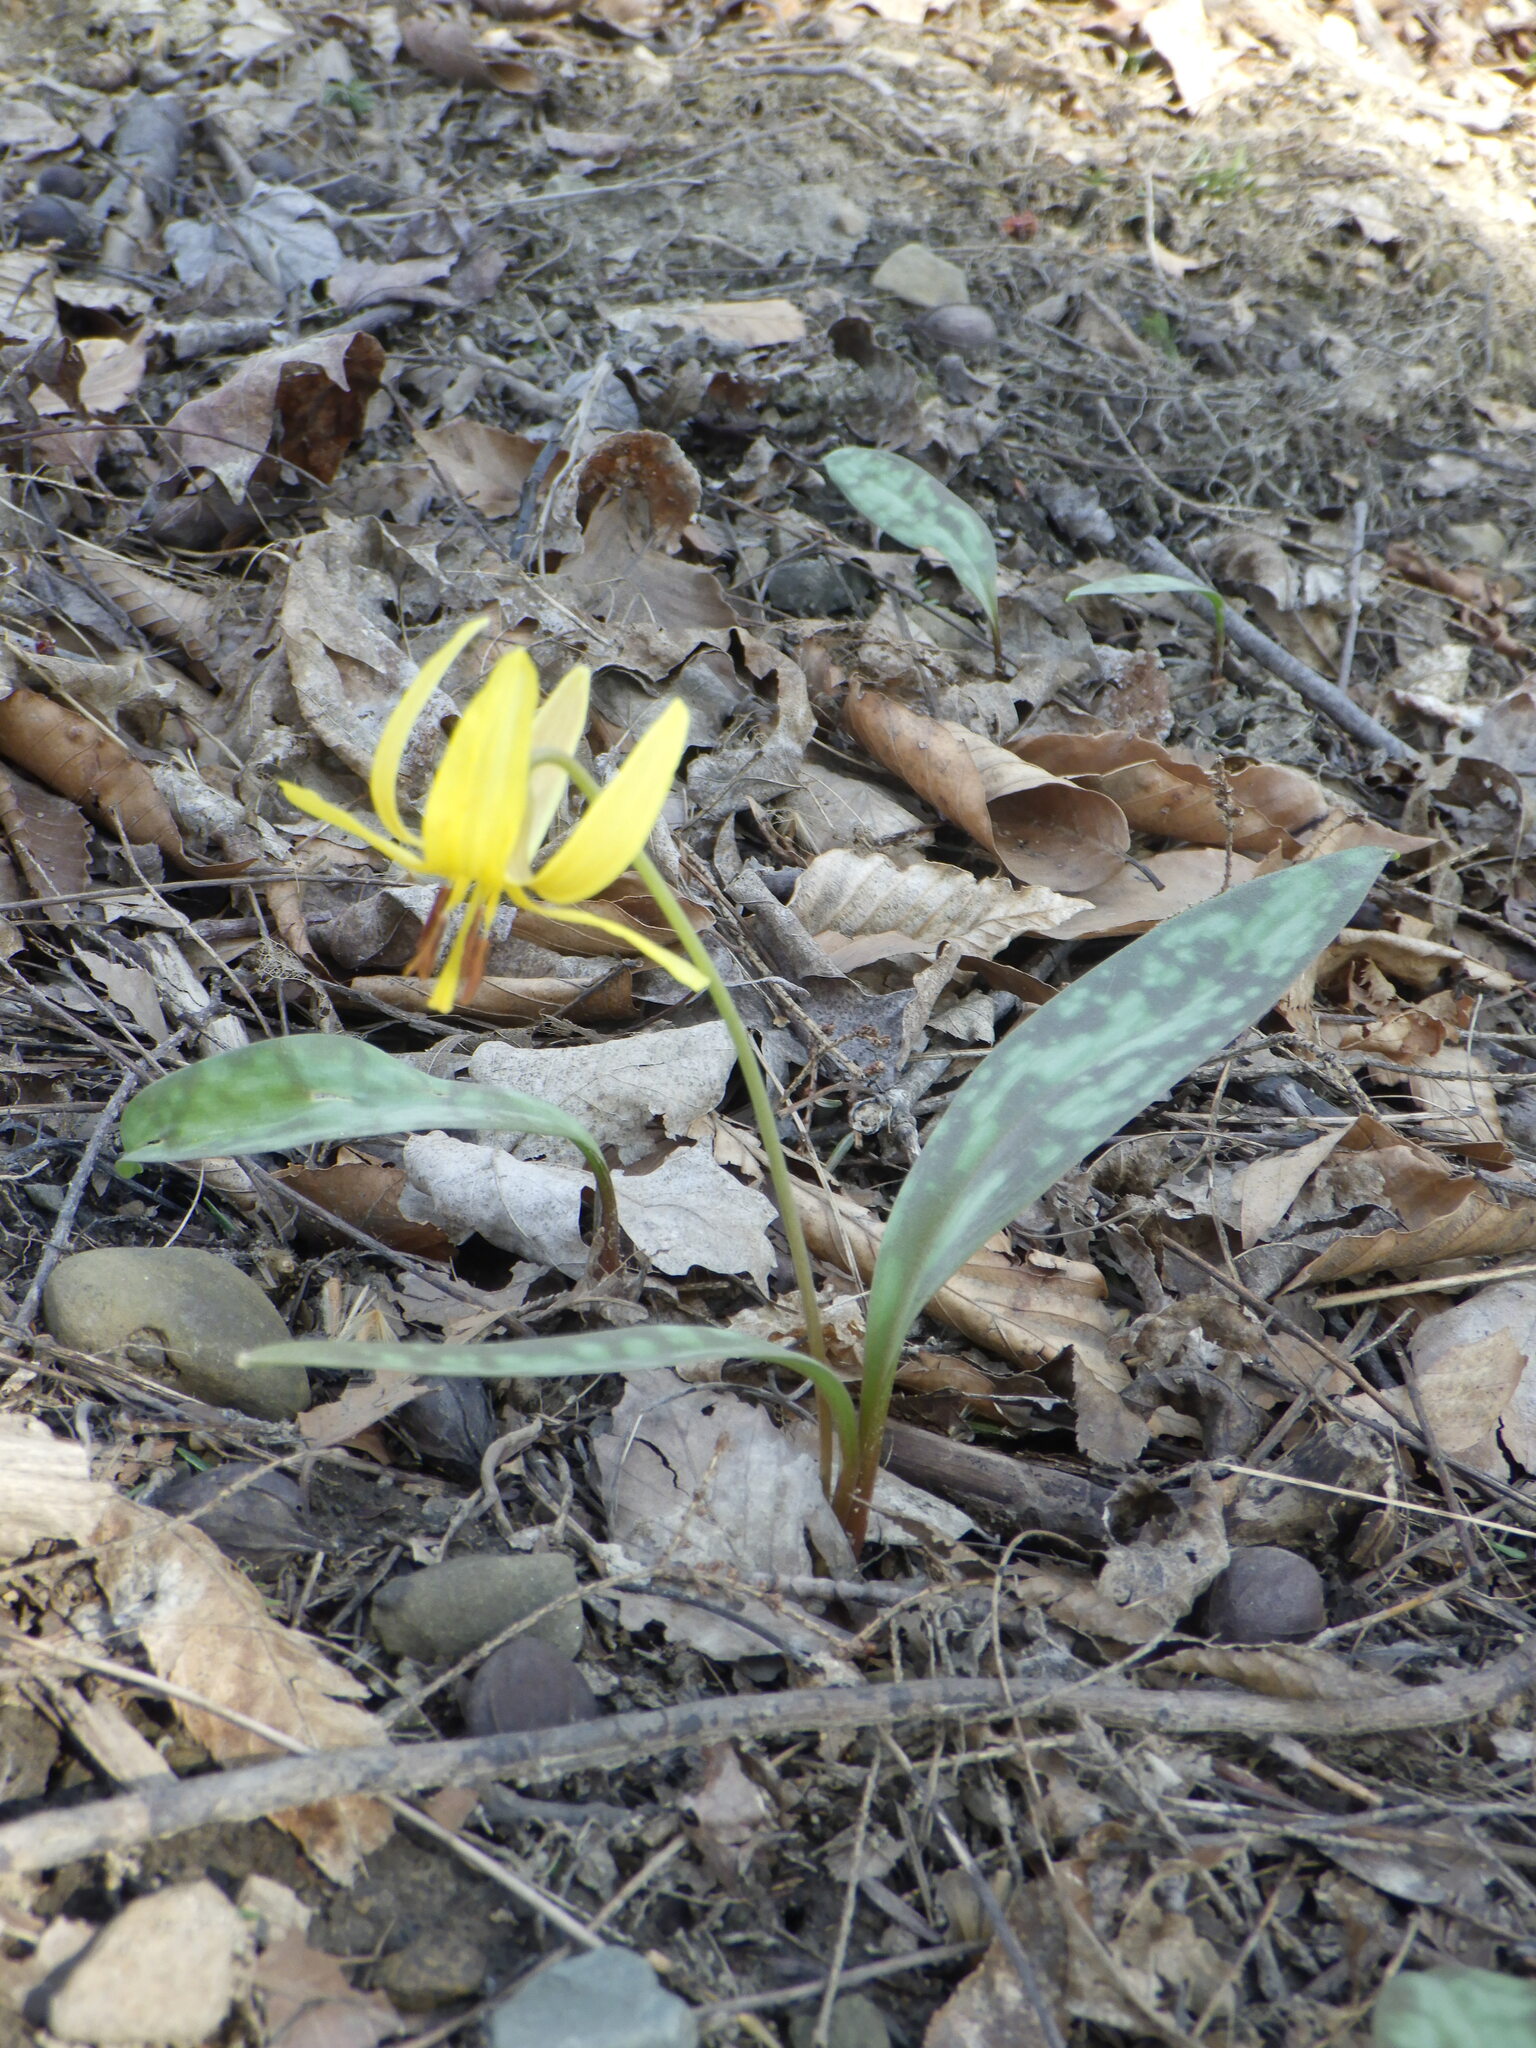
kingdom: Plantae
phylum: Tracheophyta
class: Liliopsida
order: Liliales
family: Liliaceae
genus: Erythronium
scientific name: Erythronium americanum
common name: Yellow adder's-tongue
